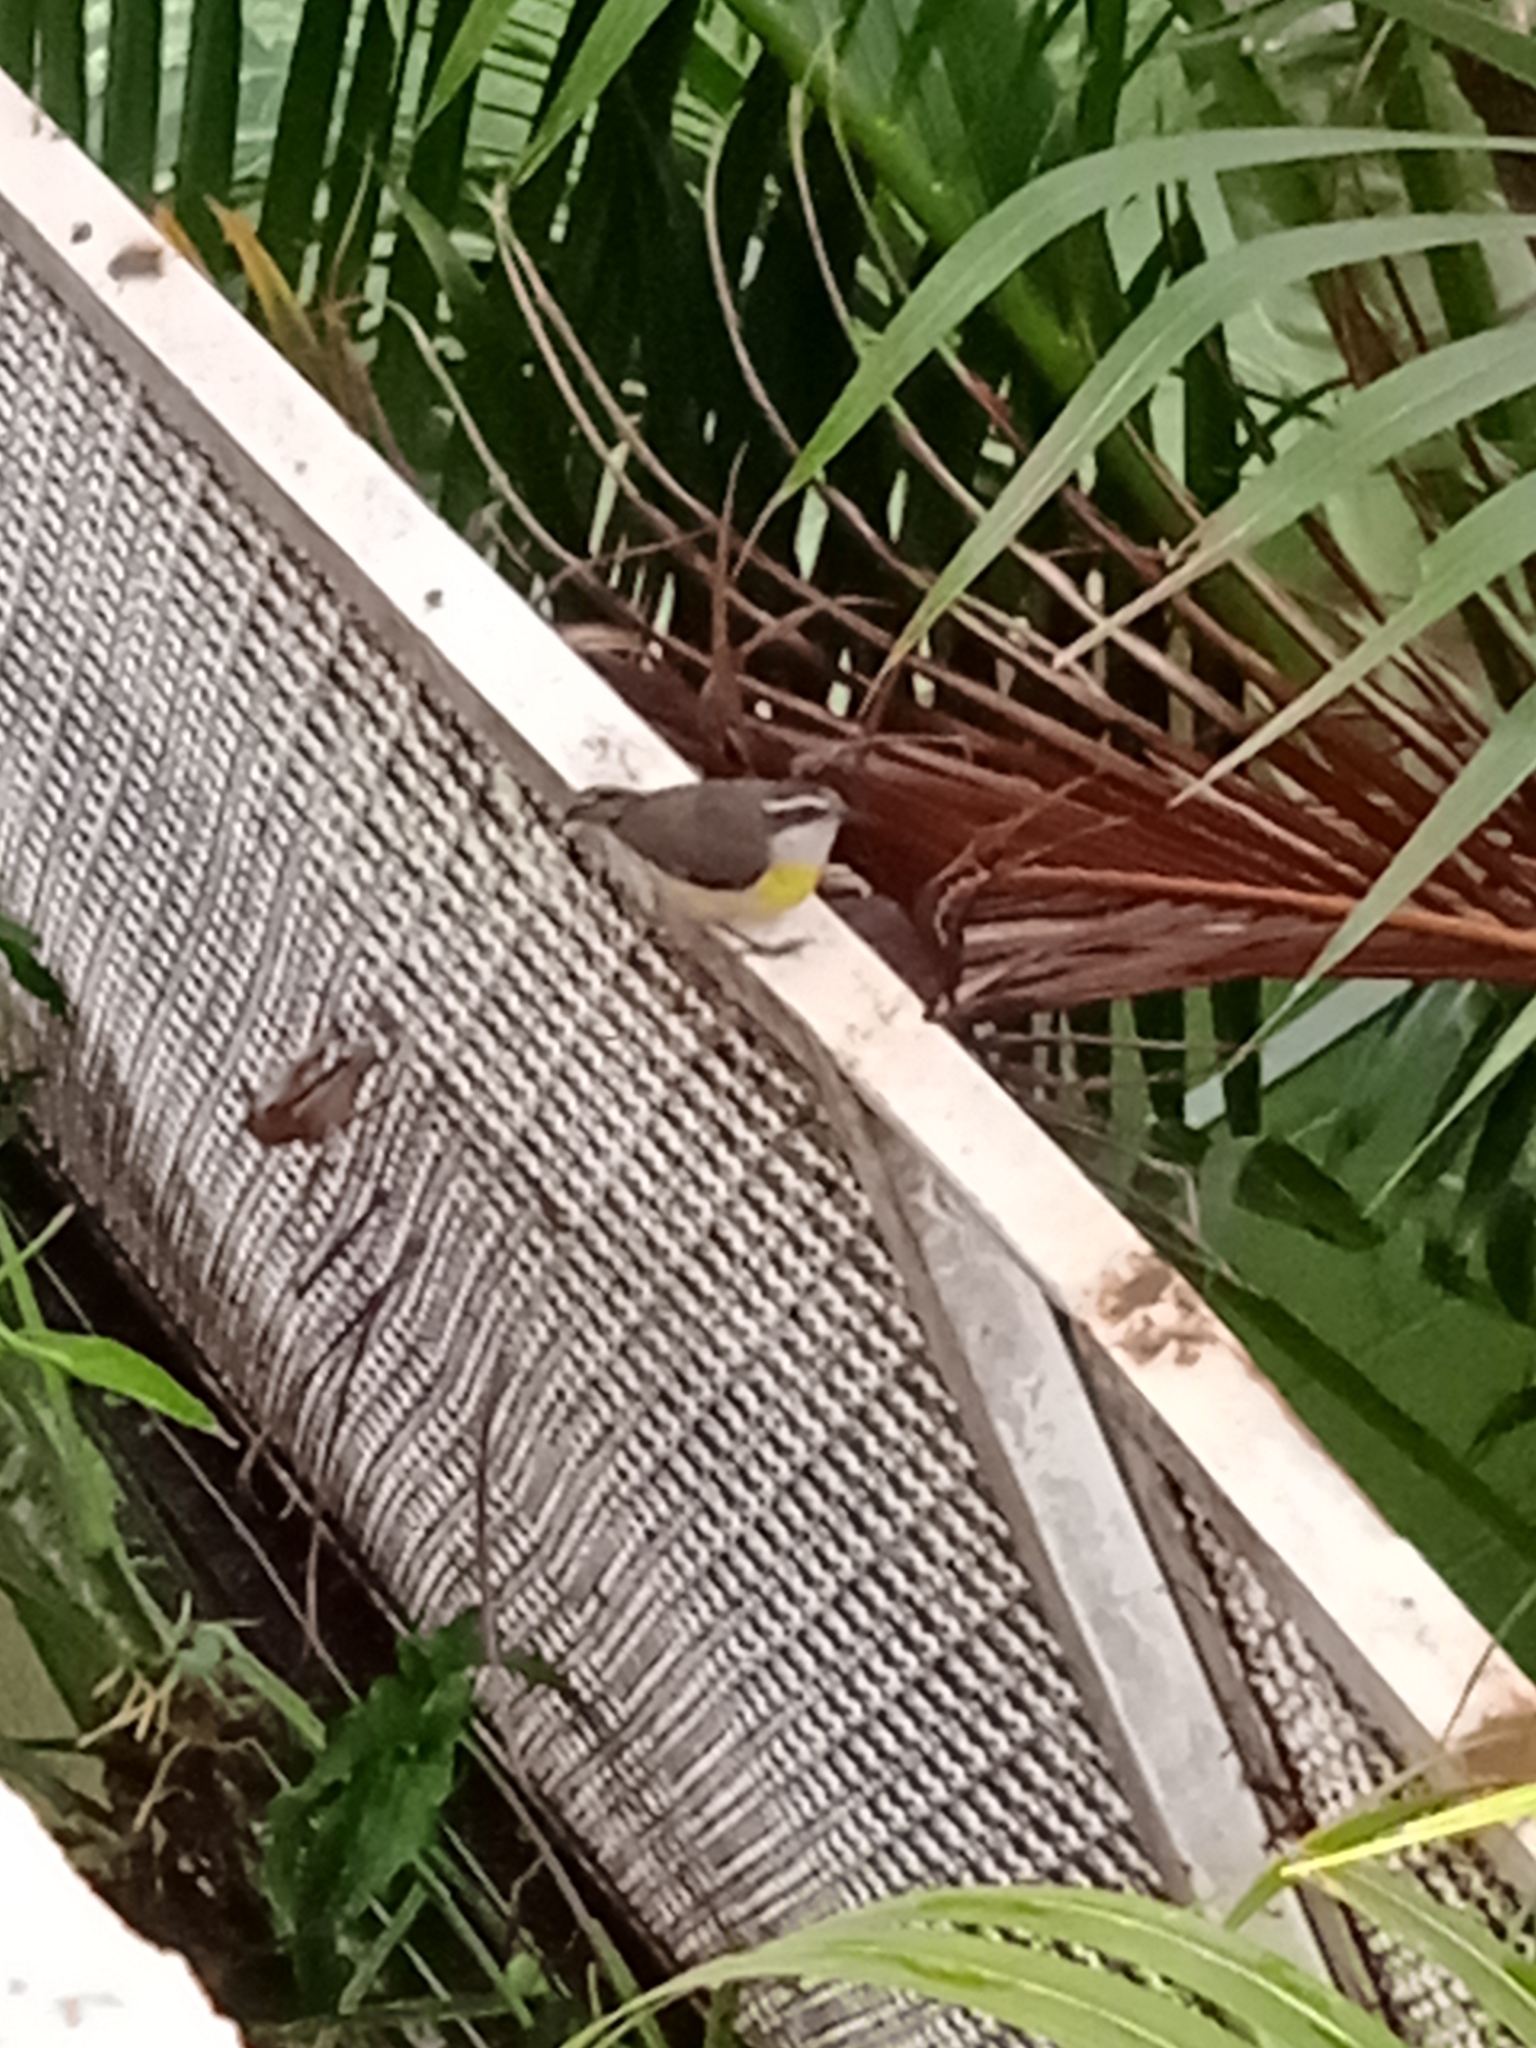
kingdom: Animalia
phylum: Chordata
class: Aves
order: Passeriformes
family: Thraupidae
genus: Coereba
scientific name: Coereba flaveola
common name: Bananaquit
